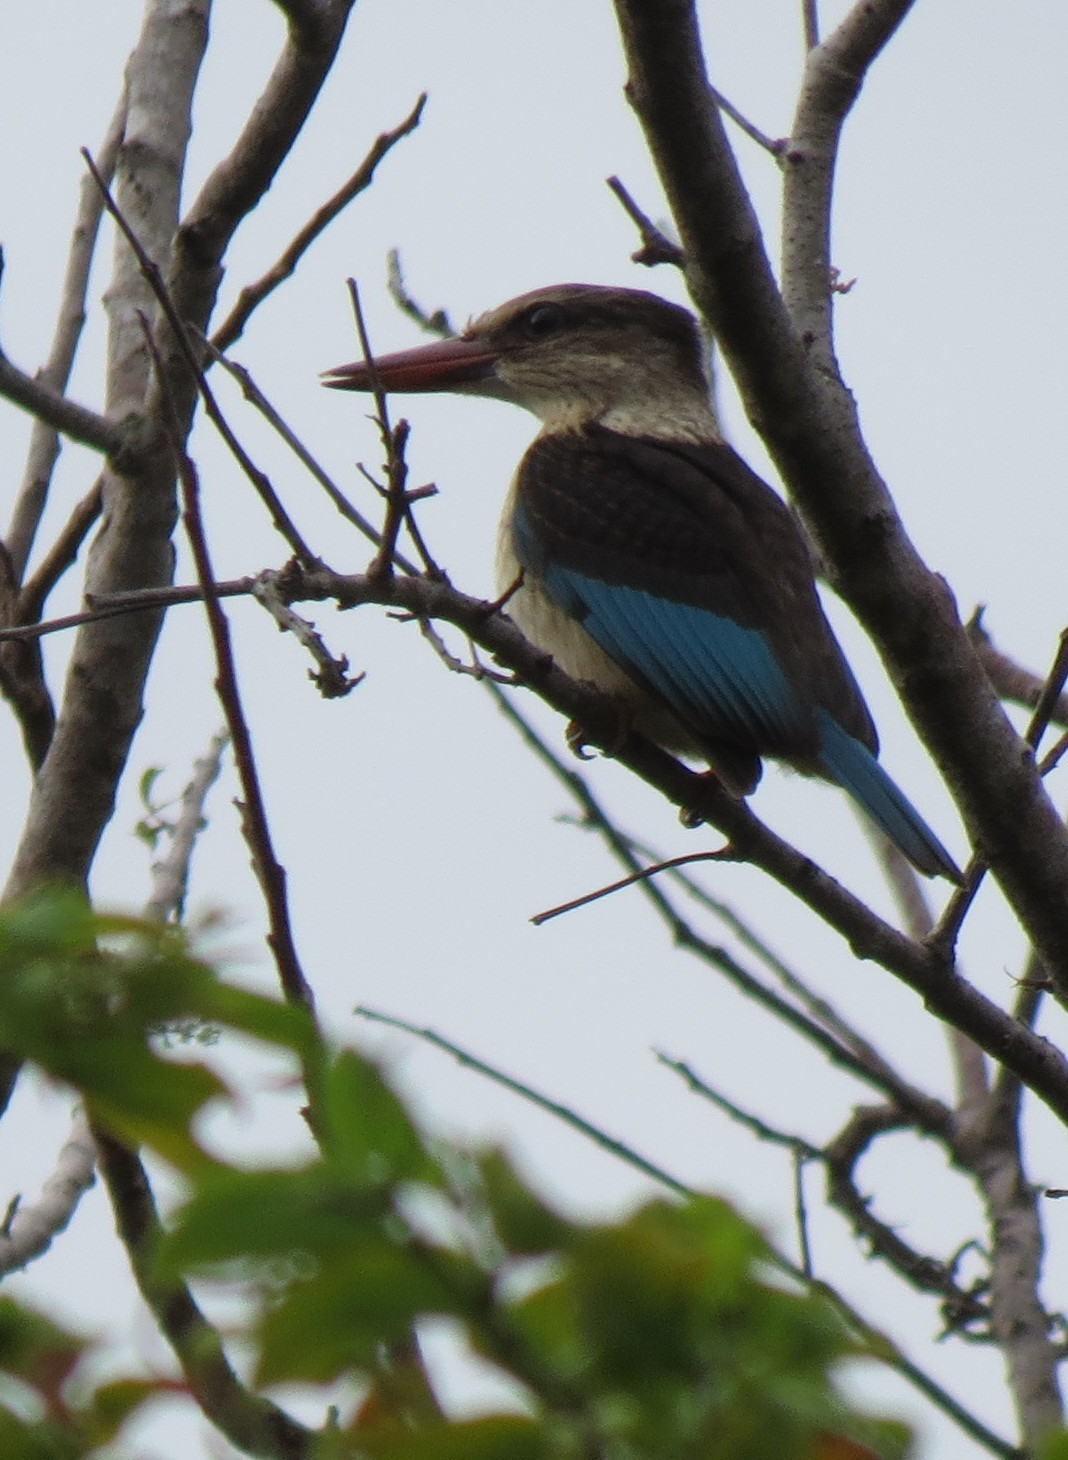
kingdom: Animalia
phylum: Chordata
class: Aves
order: Coraciiformes
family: Alcedinidae
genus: Halcyon
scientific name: Halcyon albiventris
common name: Brown-hooded kingfisher
